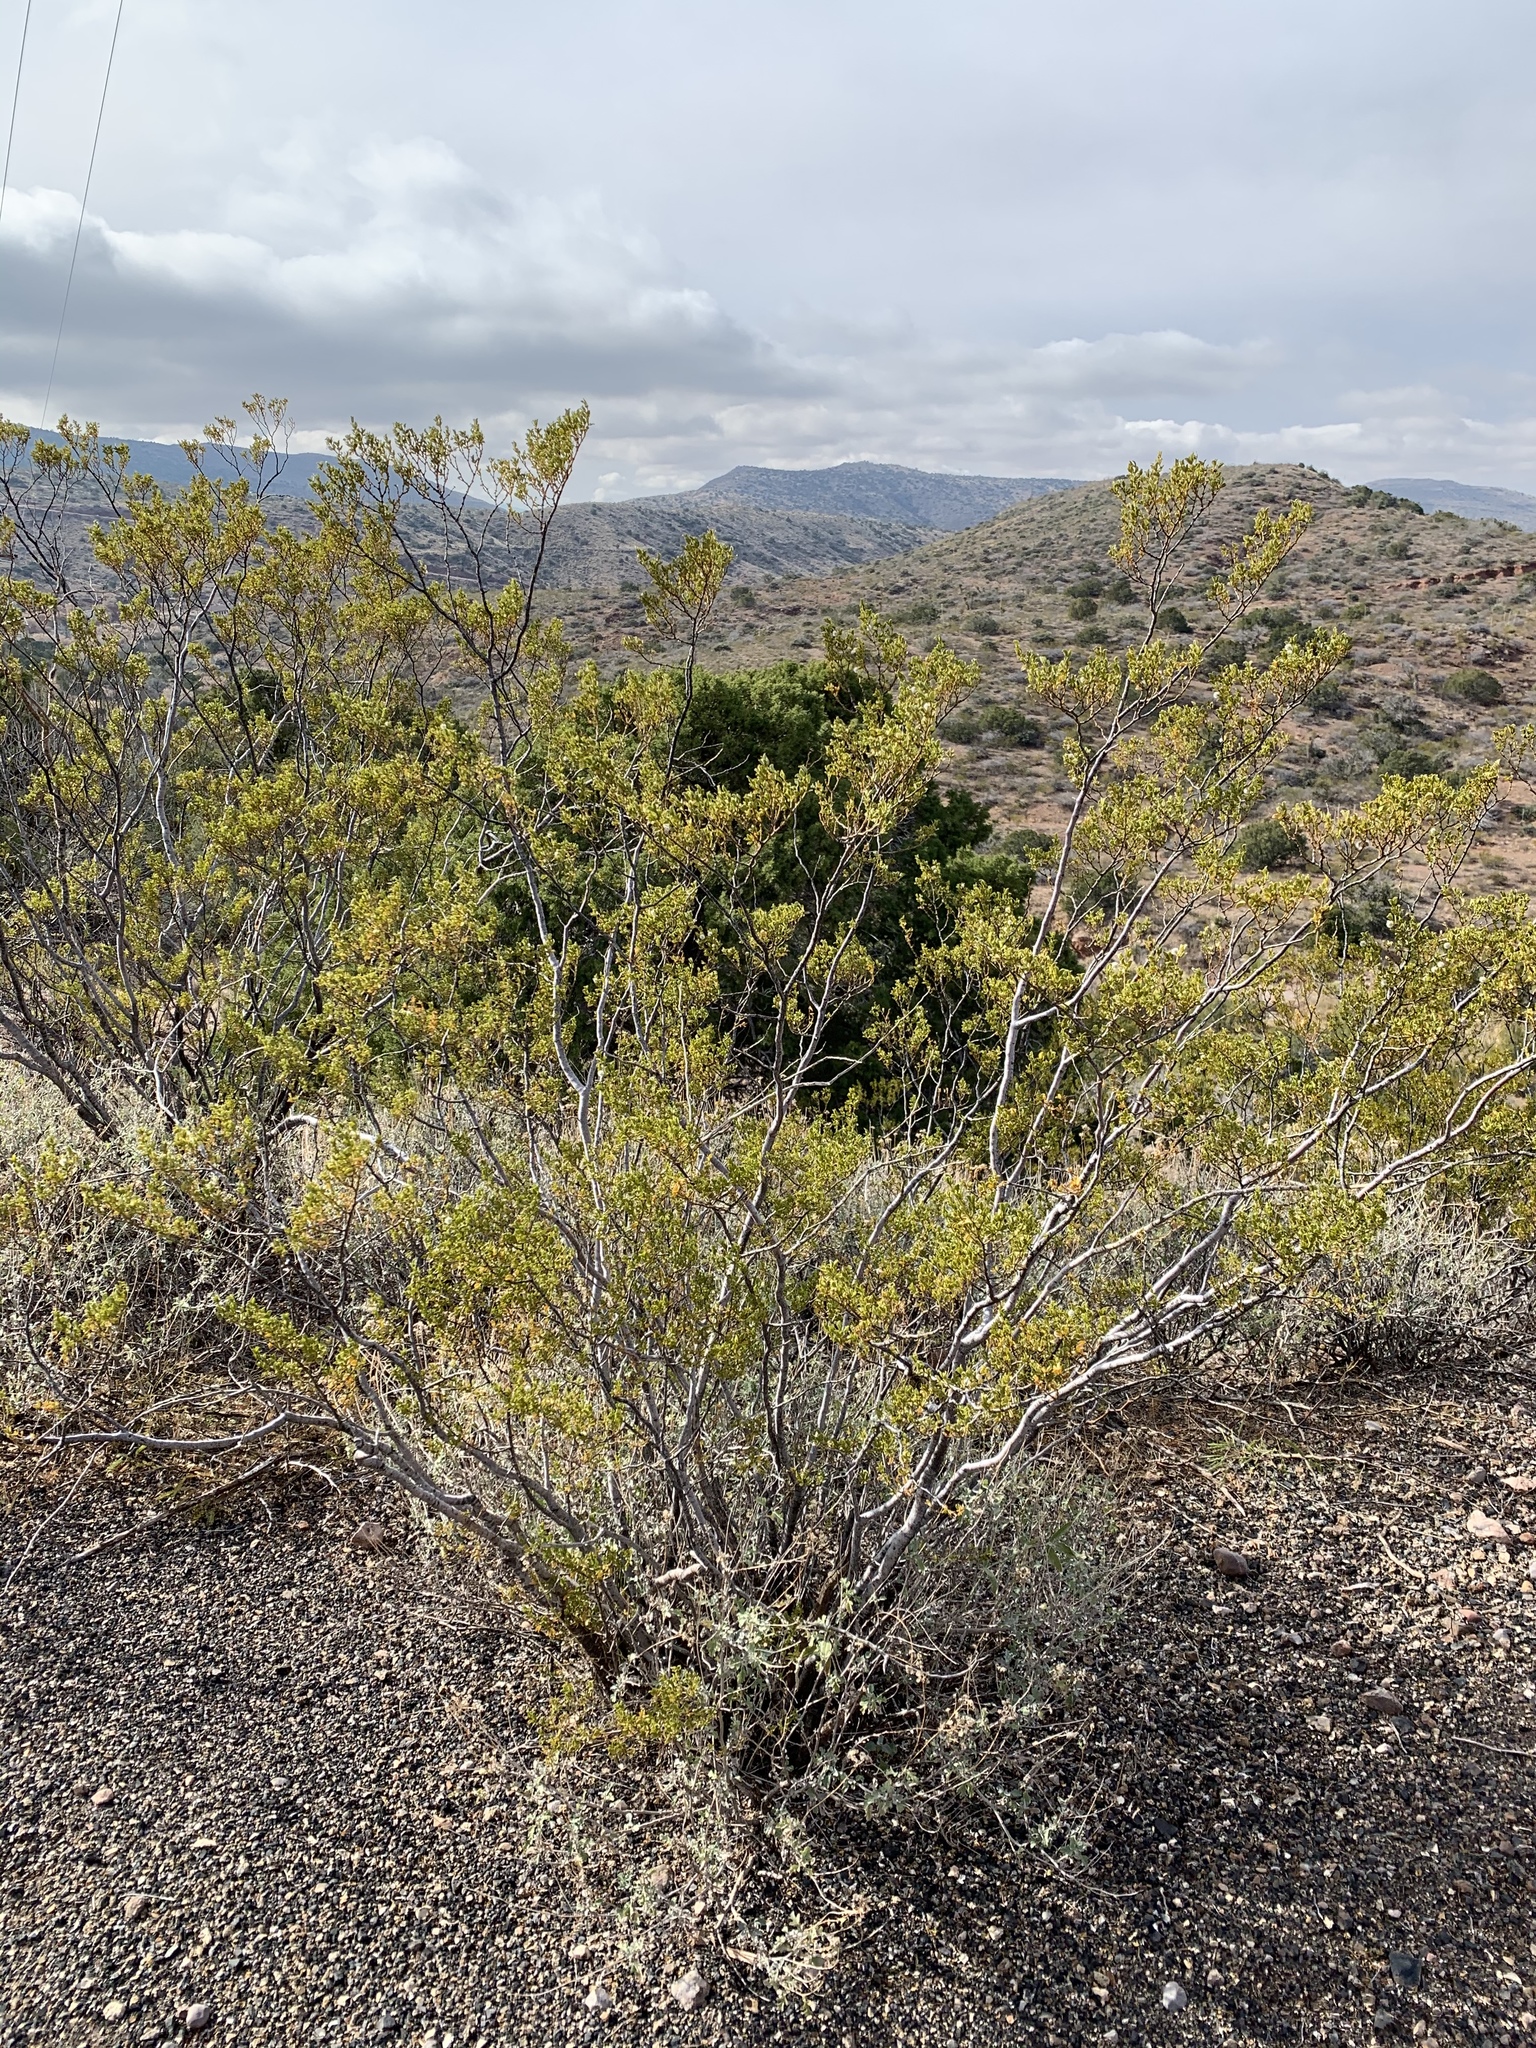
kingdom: Plantae
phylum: Tracheophyta
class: Magnoliopsida
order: Zygophyllales
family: Zygophyllaceae
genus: Larrea
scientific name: Larrea tridentata
